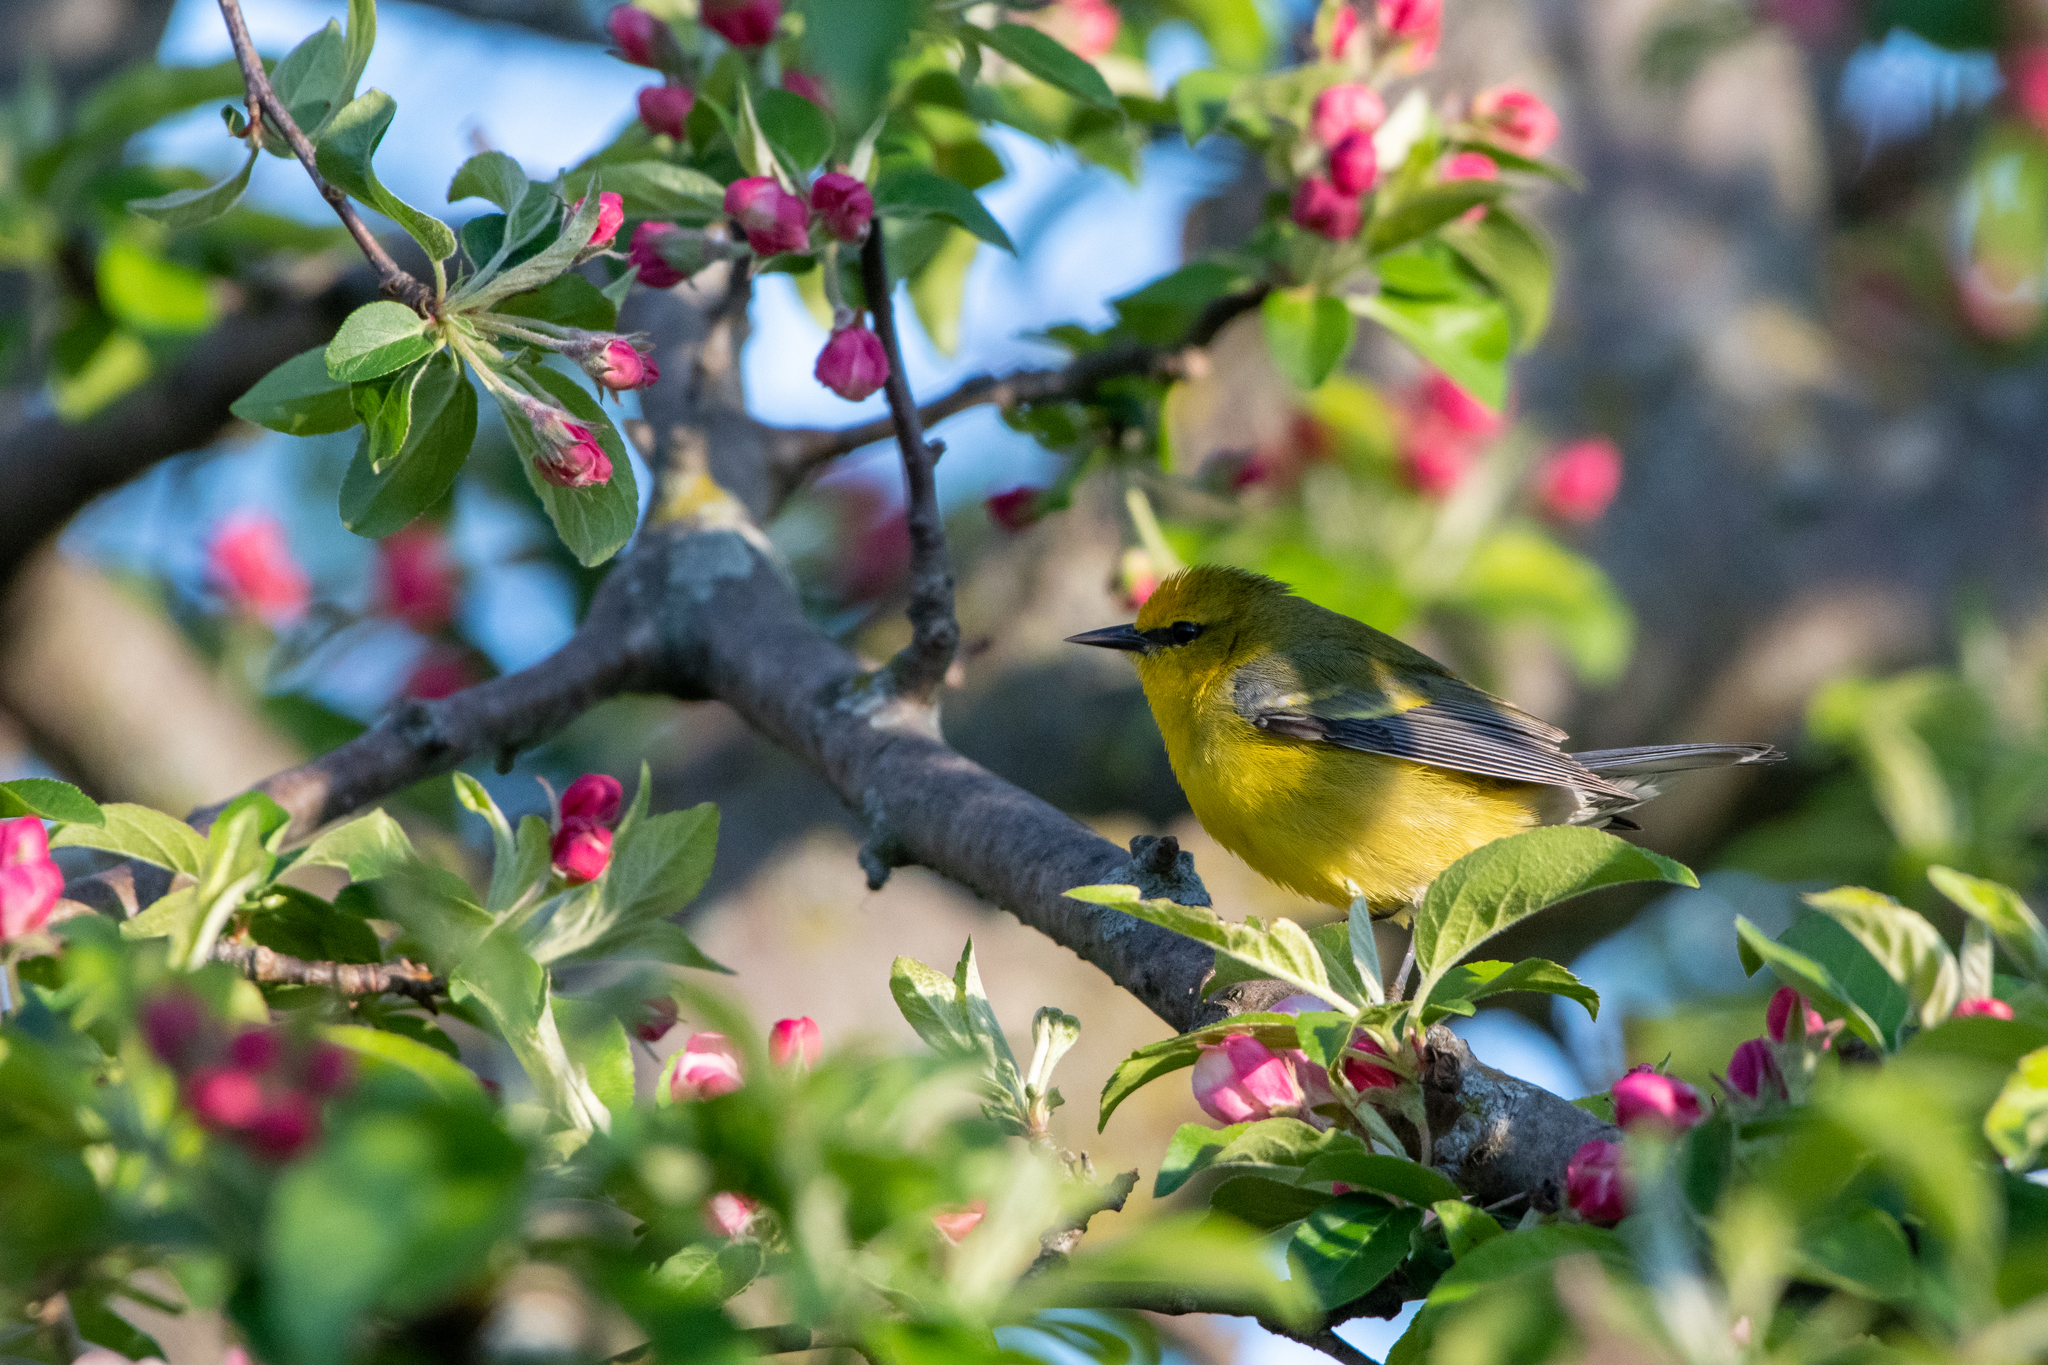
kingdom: Animalia
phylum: Chordata
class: Aves
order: Passeriformes
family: Parulidae
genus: Vermivora
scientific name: Vermivora cyanoptera
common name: Blue-winged warbler
